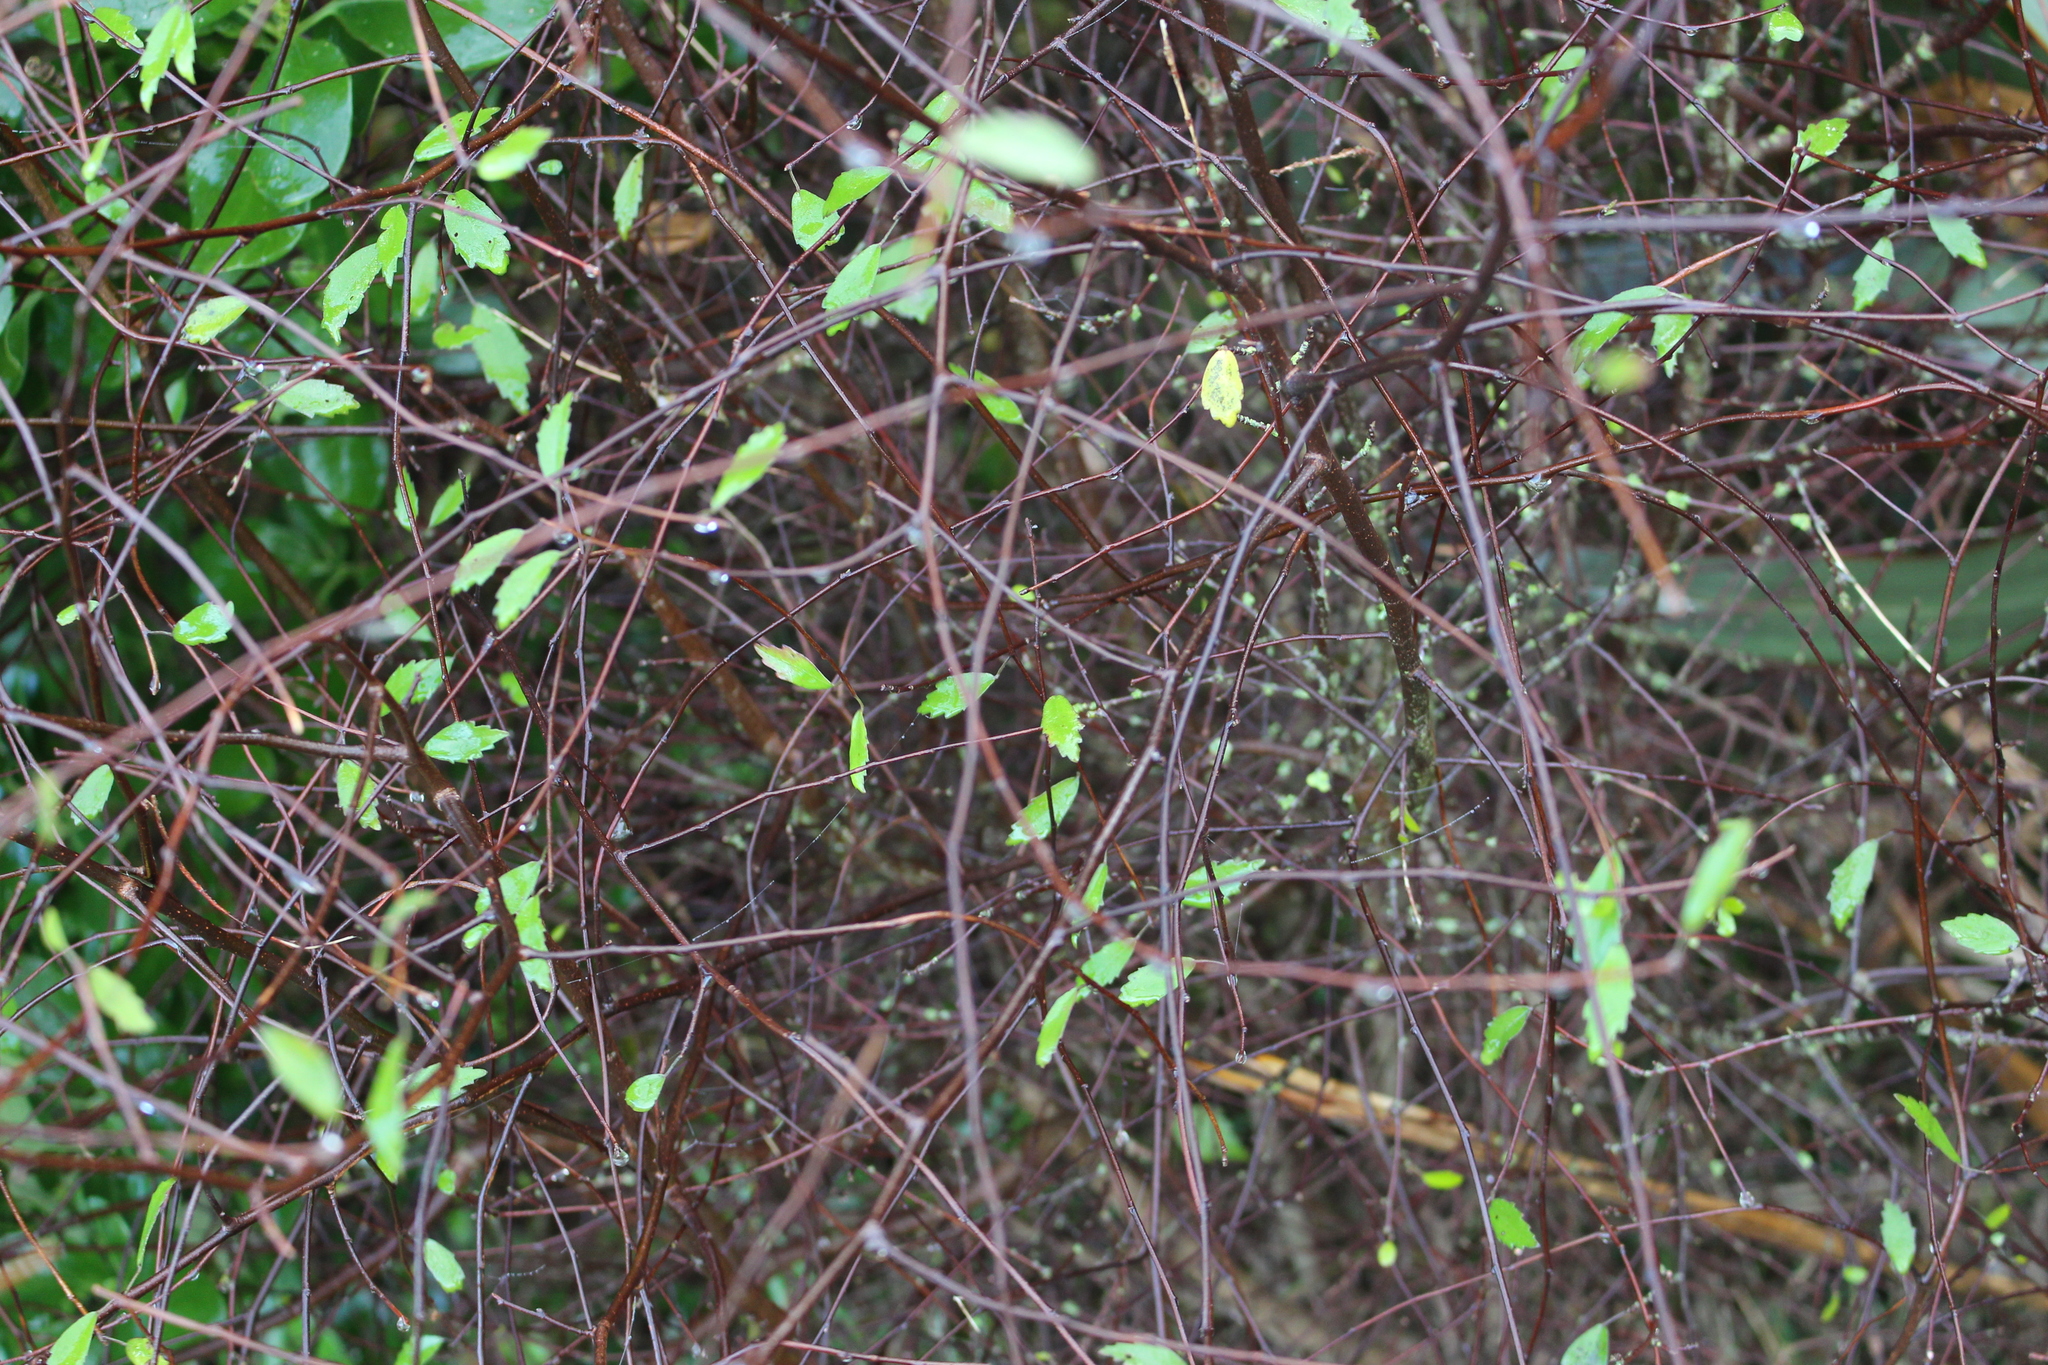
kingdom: Plantae
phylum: Tracheophyta
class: Magnoliopsida
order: Malvales
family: Malvaceae
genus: Plagianthus
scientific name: Plagianthus cymosus
